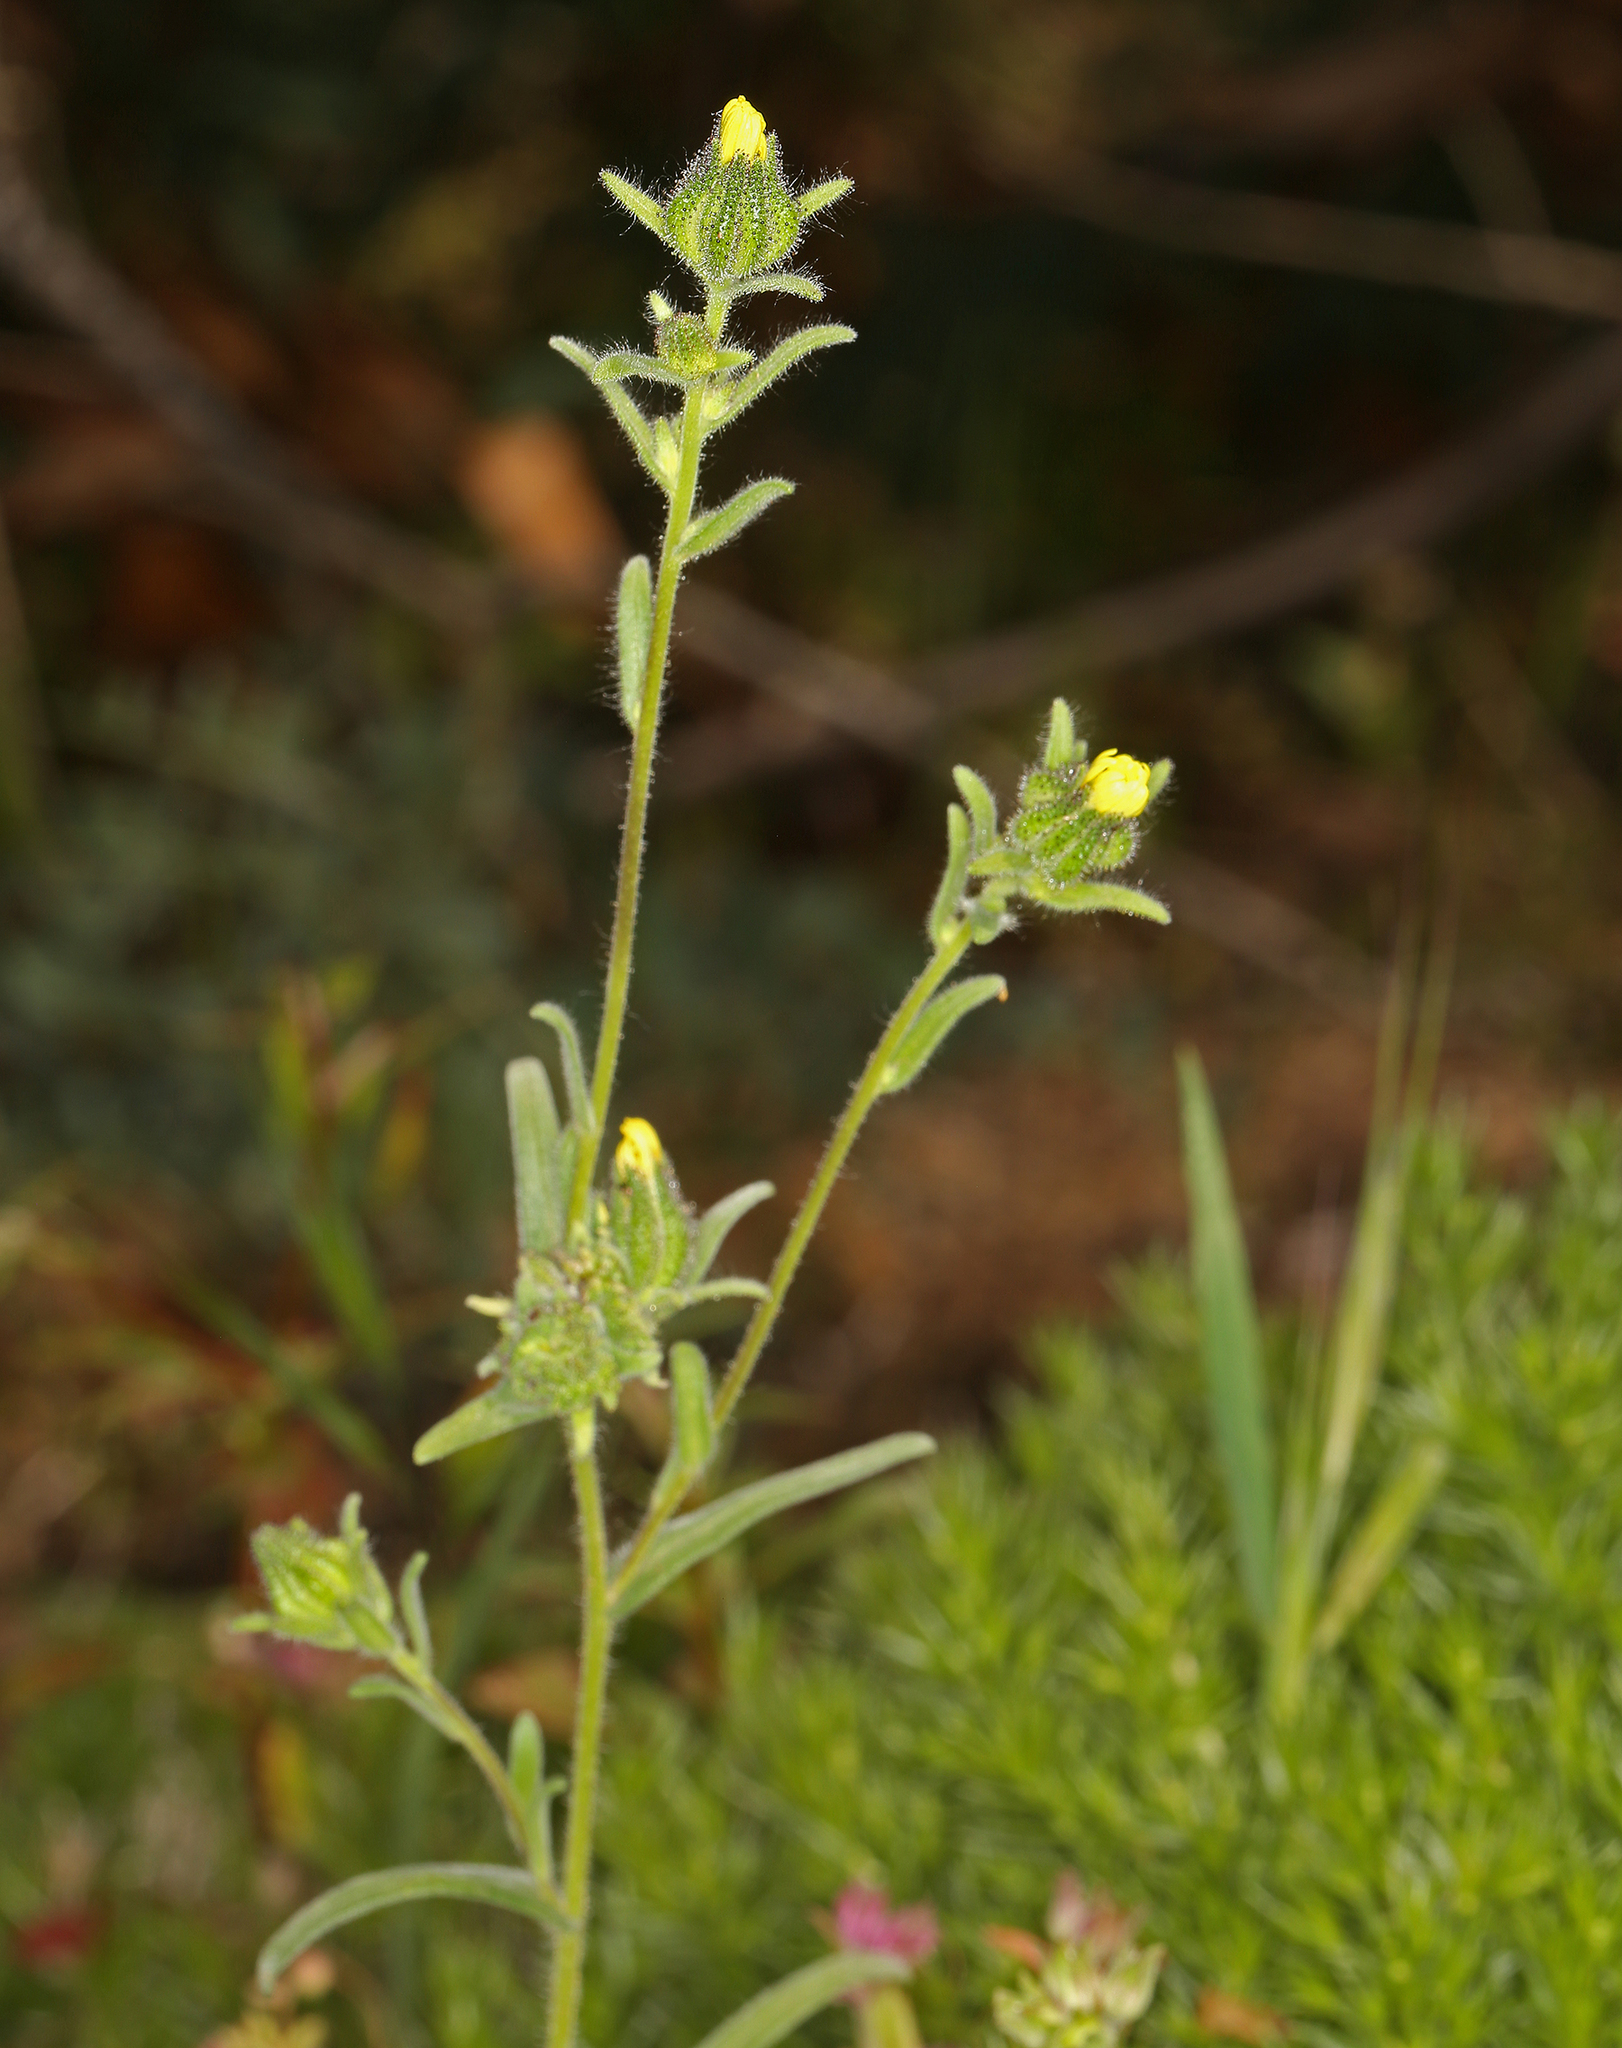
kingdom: Plantae
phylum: Tracheophyta
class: Magnoliopsida
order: Asterales
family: Asteraceae
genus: Madia
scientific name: Madia gracilis
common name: Grassy tarweed
